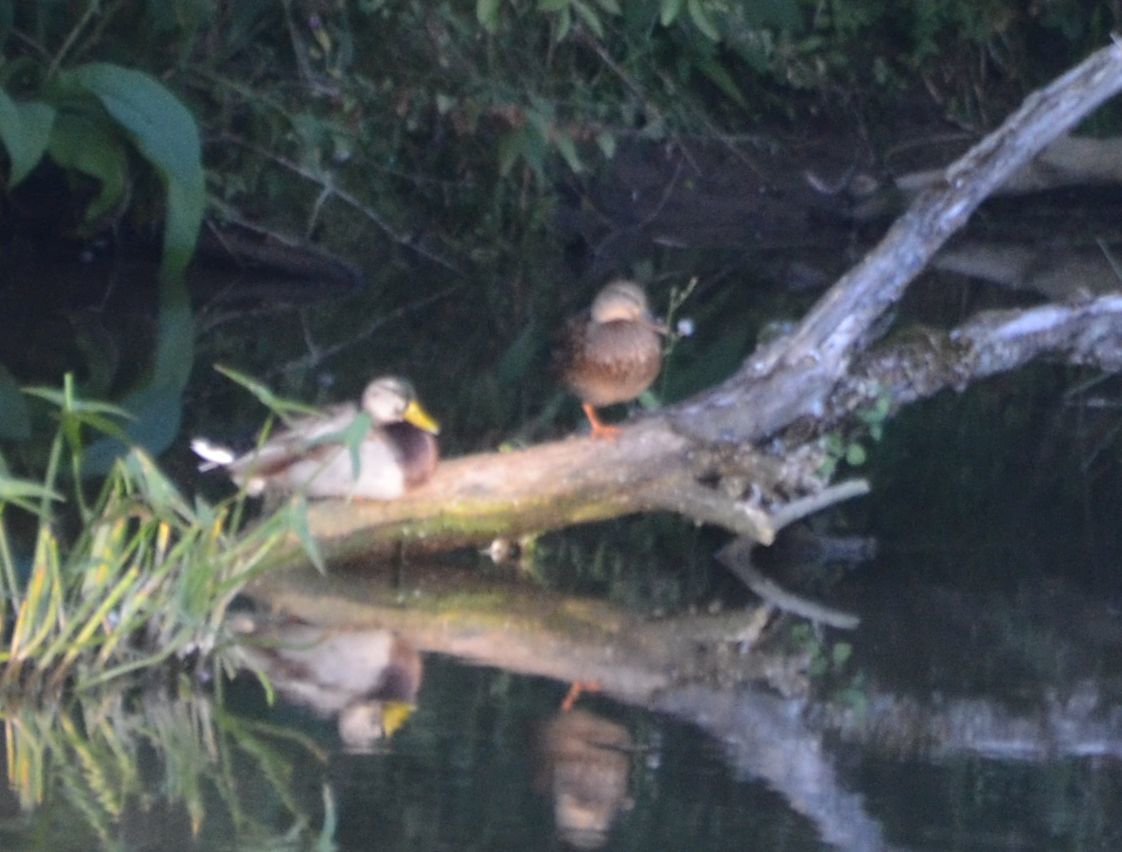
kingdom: Animalia
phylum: Chordata
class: Aves
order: Anseriformes
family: Anatidae
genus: Anas
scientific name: Anas platyrhynchos
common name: Mallard
